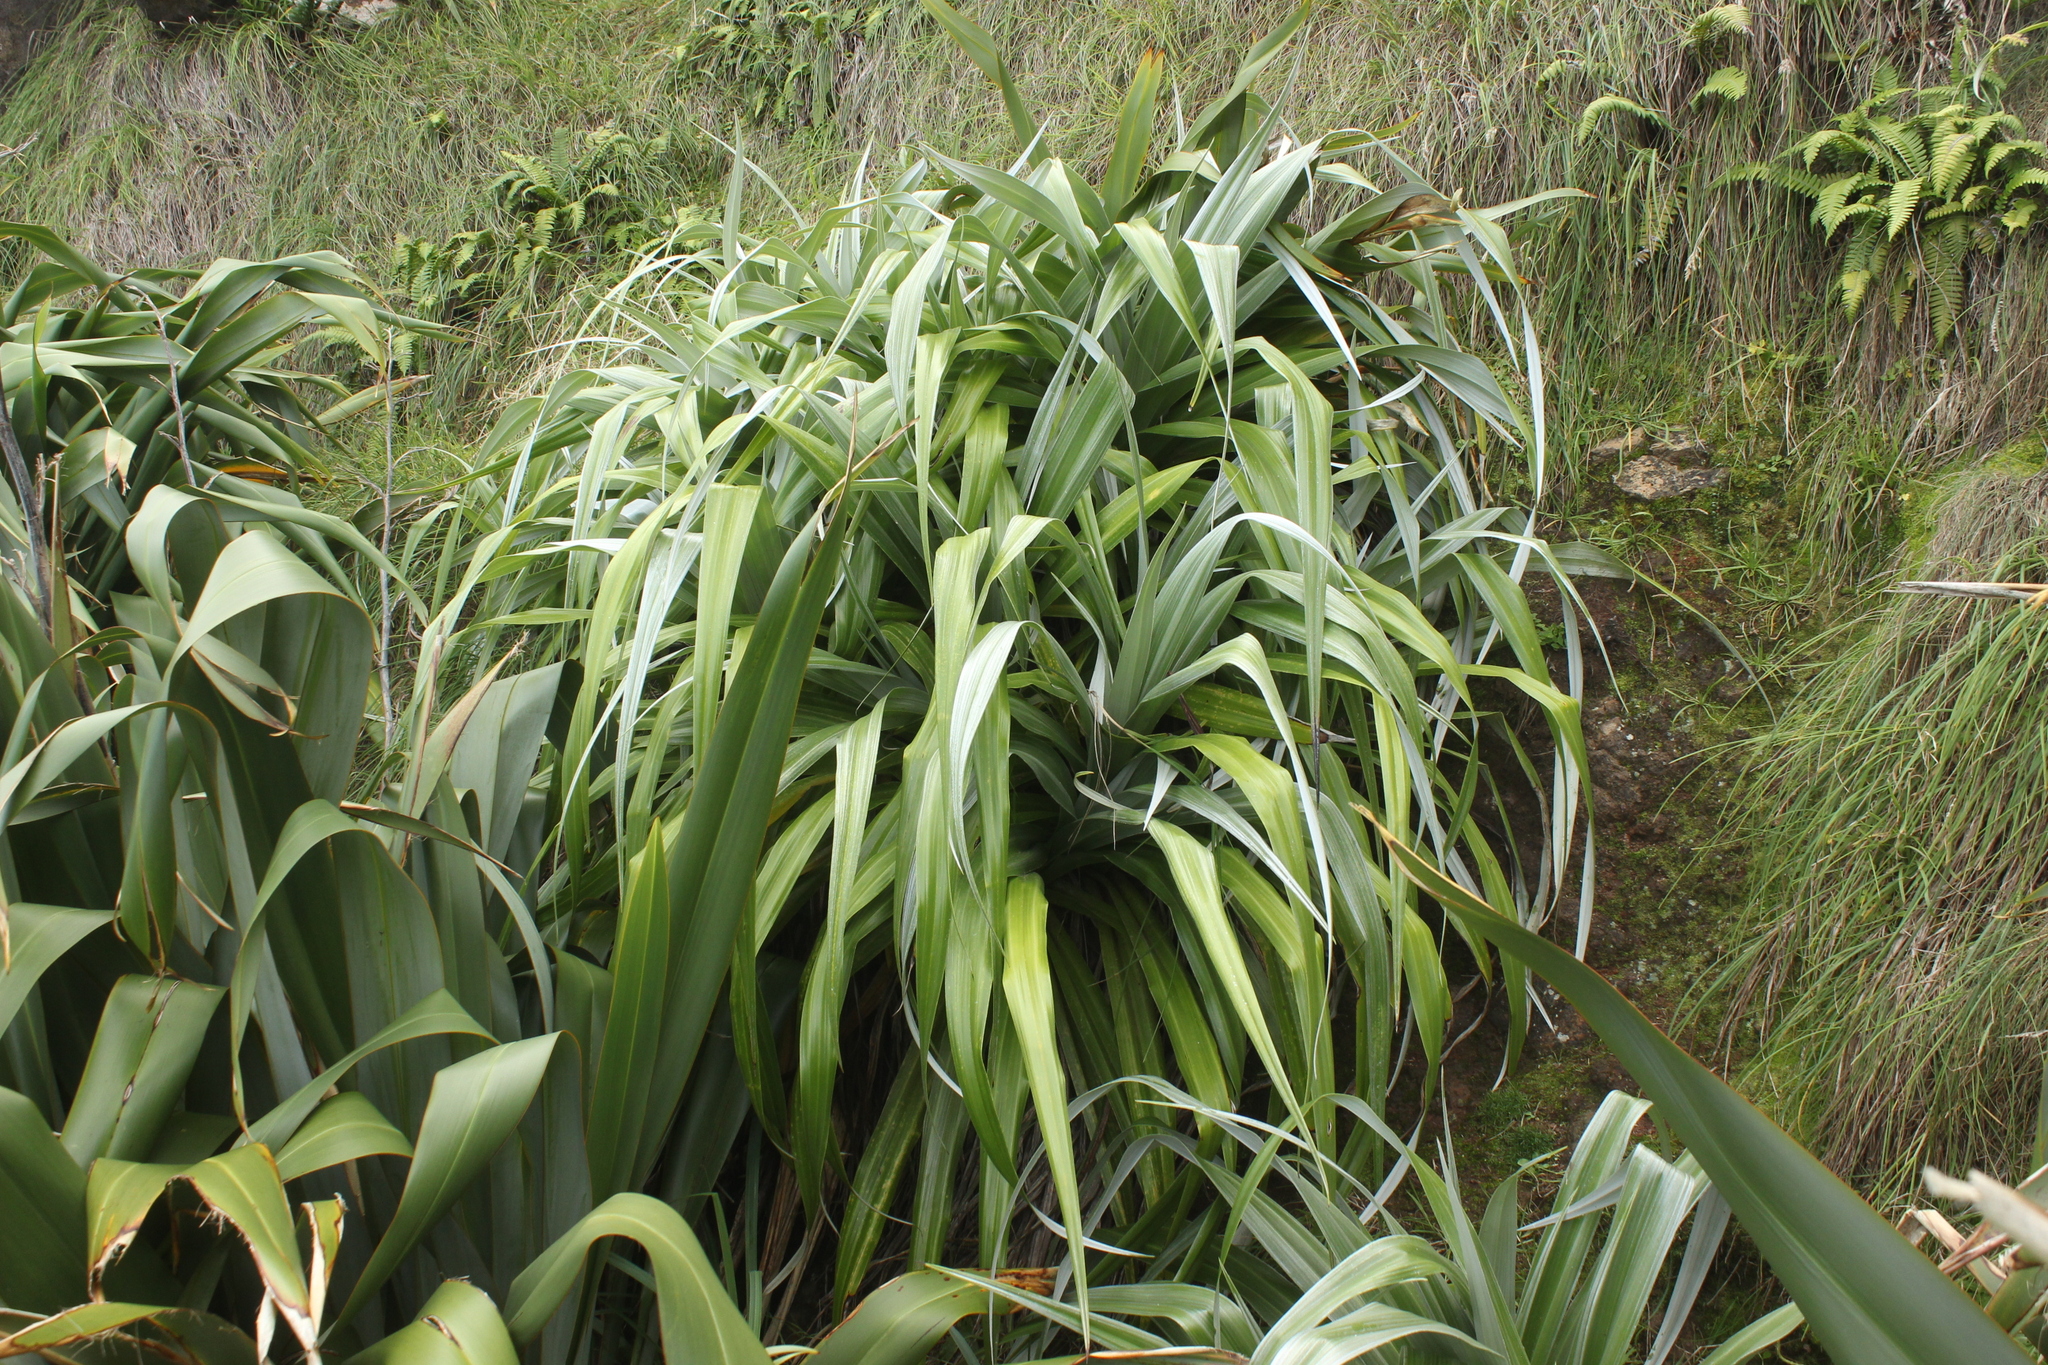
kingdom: Plantae
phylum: Tracheophyta
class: Liliopsida
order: Asparagales
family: Asteliaceae
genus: Astelia
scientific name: Astelia chathamica
